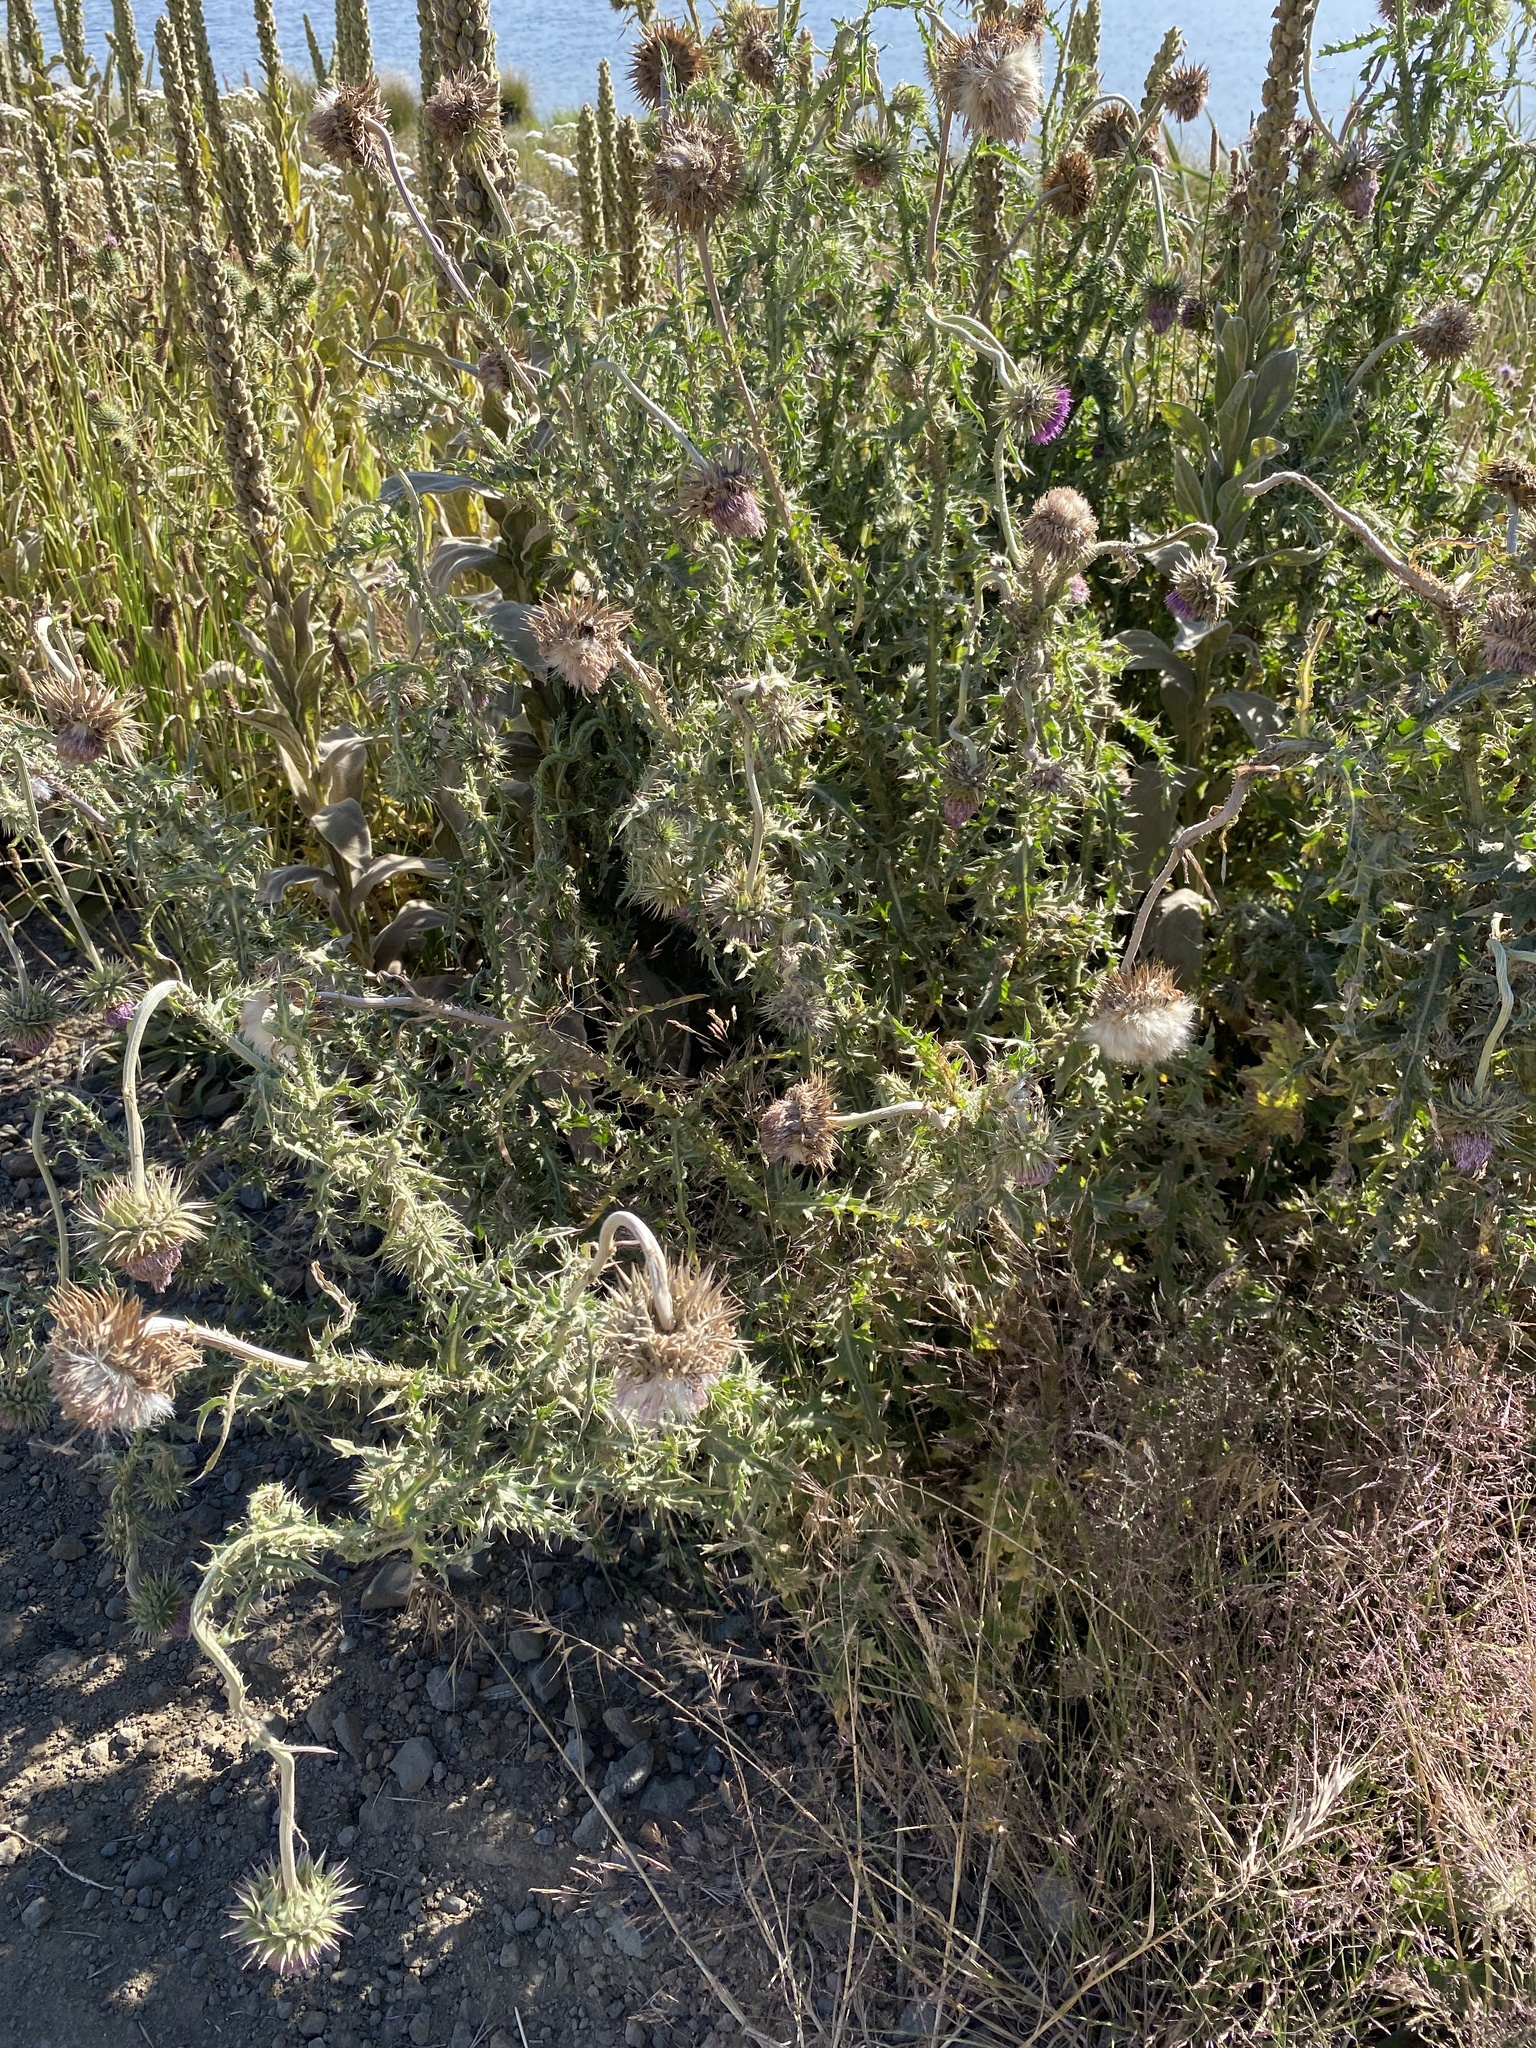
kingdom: Plantae
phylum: Tracheophyta
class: Magnoliopsida
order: Asterales
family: Asteraceae
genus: Carduus
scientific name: Carduus nutans
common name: Musk thistle
